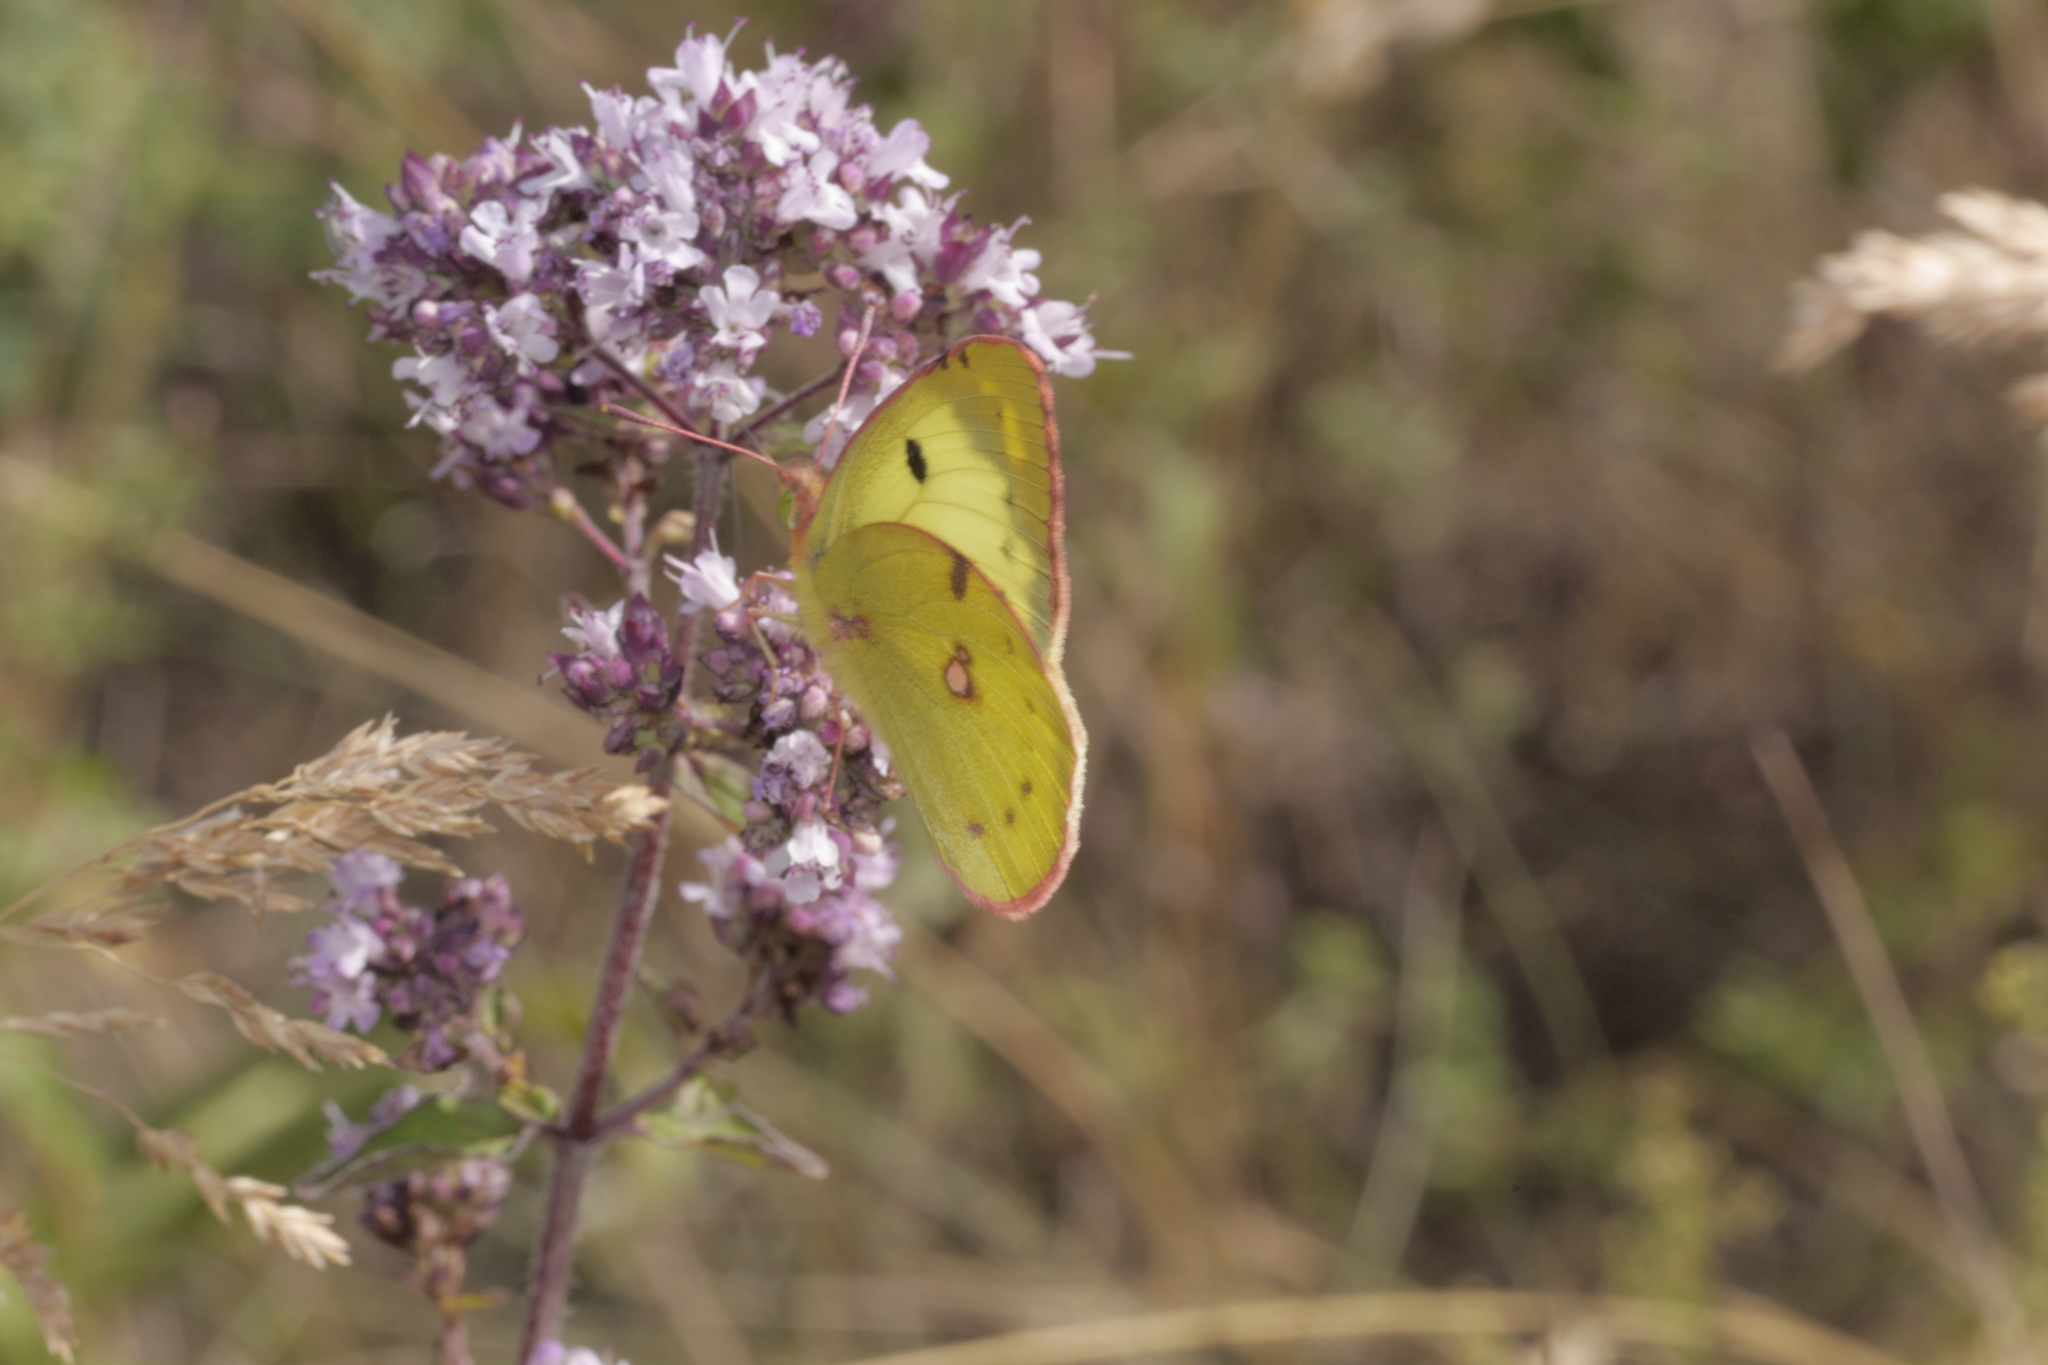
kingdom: Animalia
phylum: Arthropoda
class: Insecta
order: Lepidoptera
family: Pieridae
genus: Colias
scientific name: Colias alfacariensis
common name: Berger's clouded yellow
